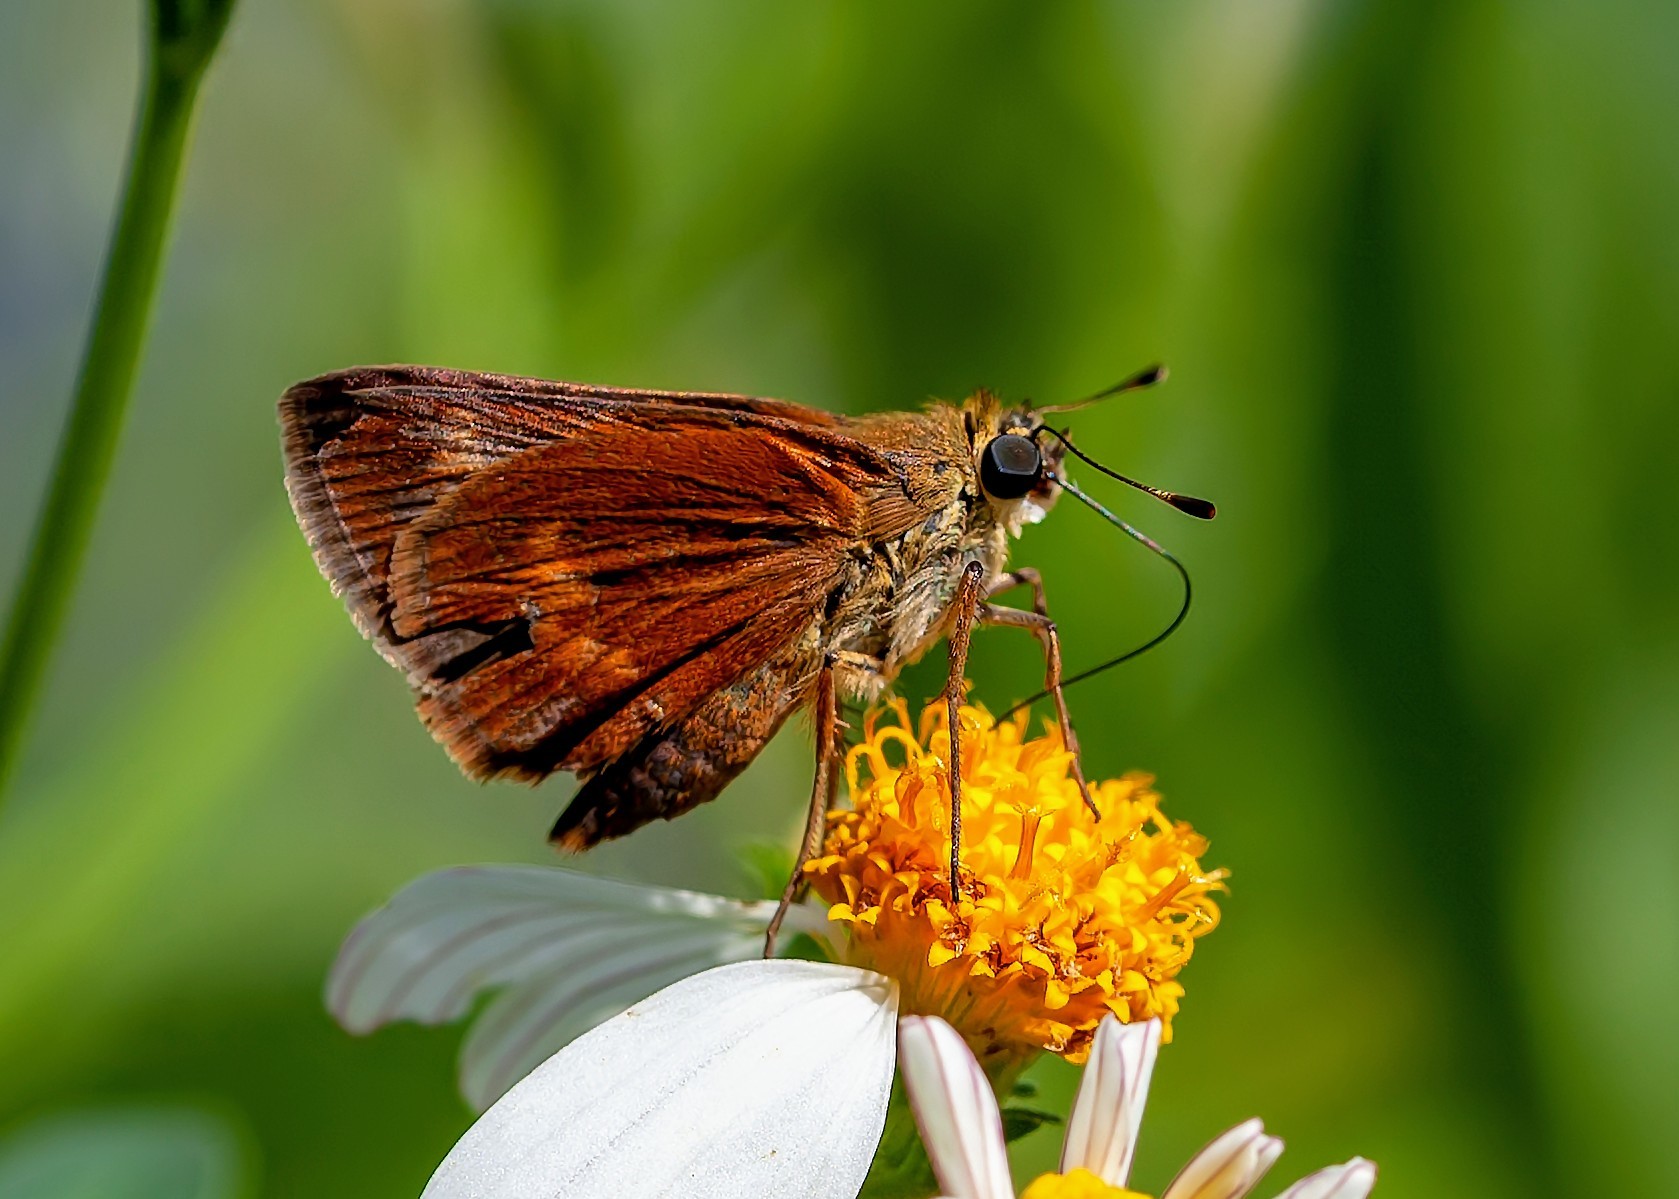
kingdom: Animalia
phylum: Arthropoda
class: Insecta
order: Lepidoptera
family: Hesperiidae
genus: Polites
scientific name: Polites otho
